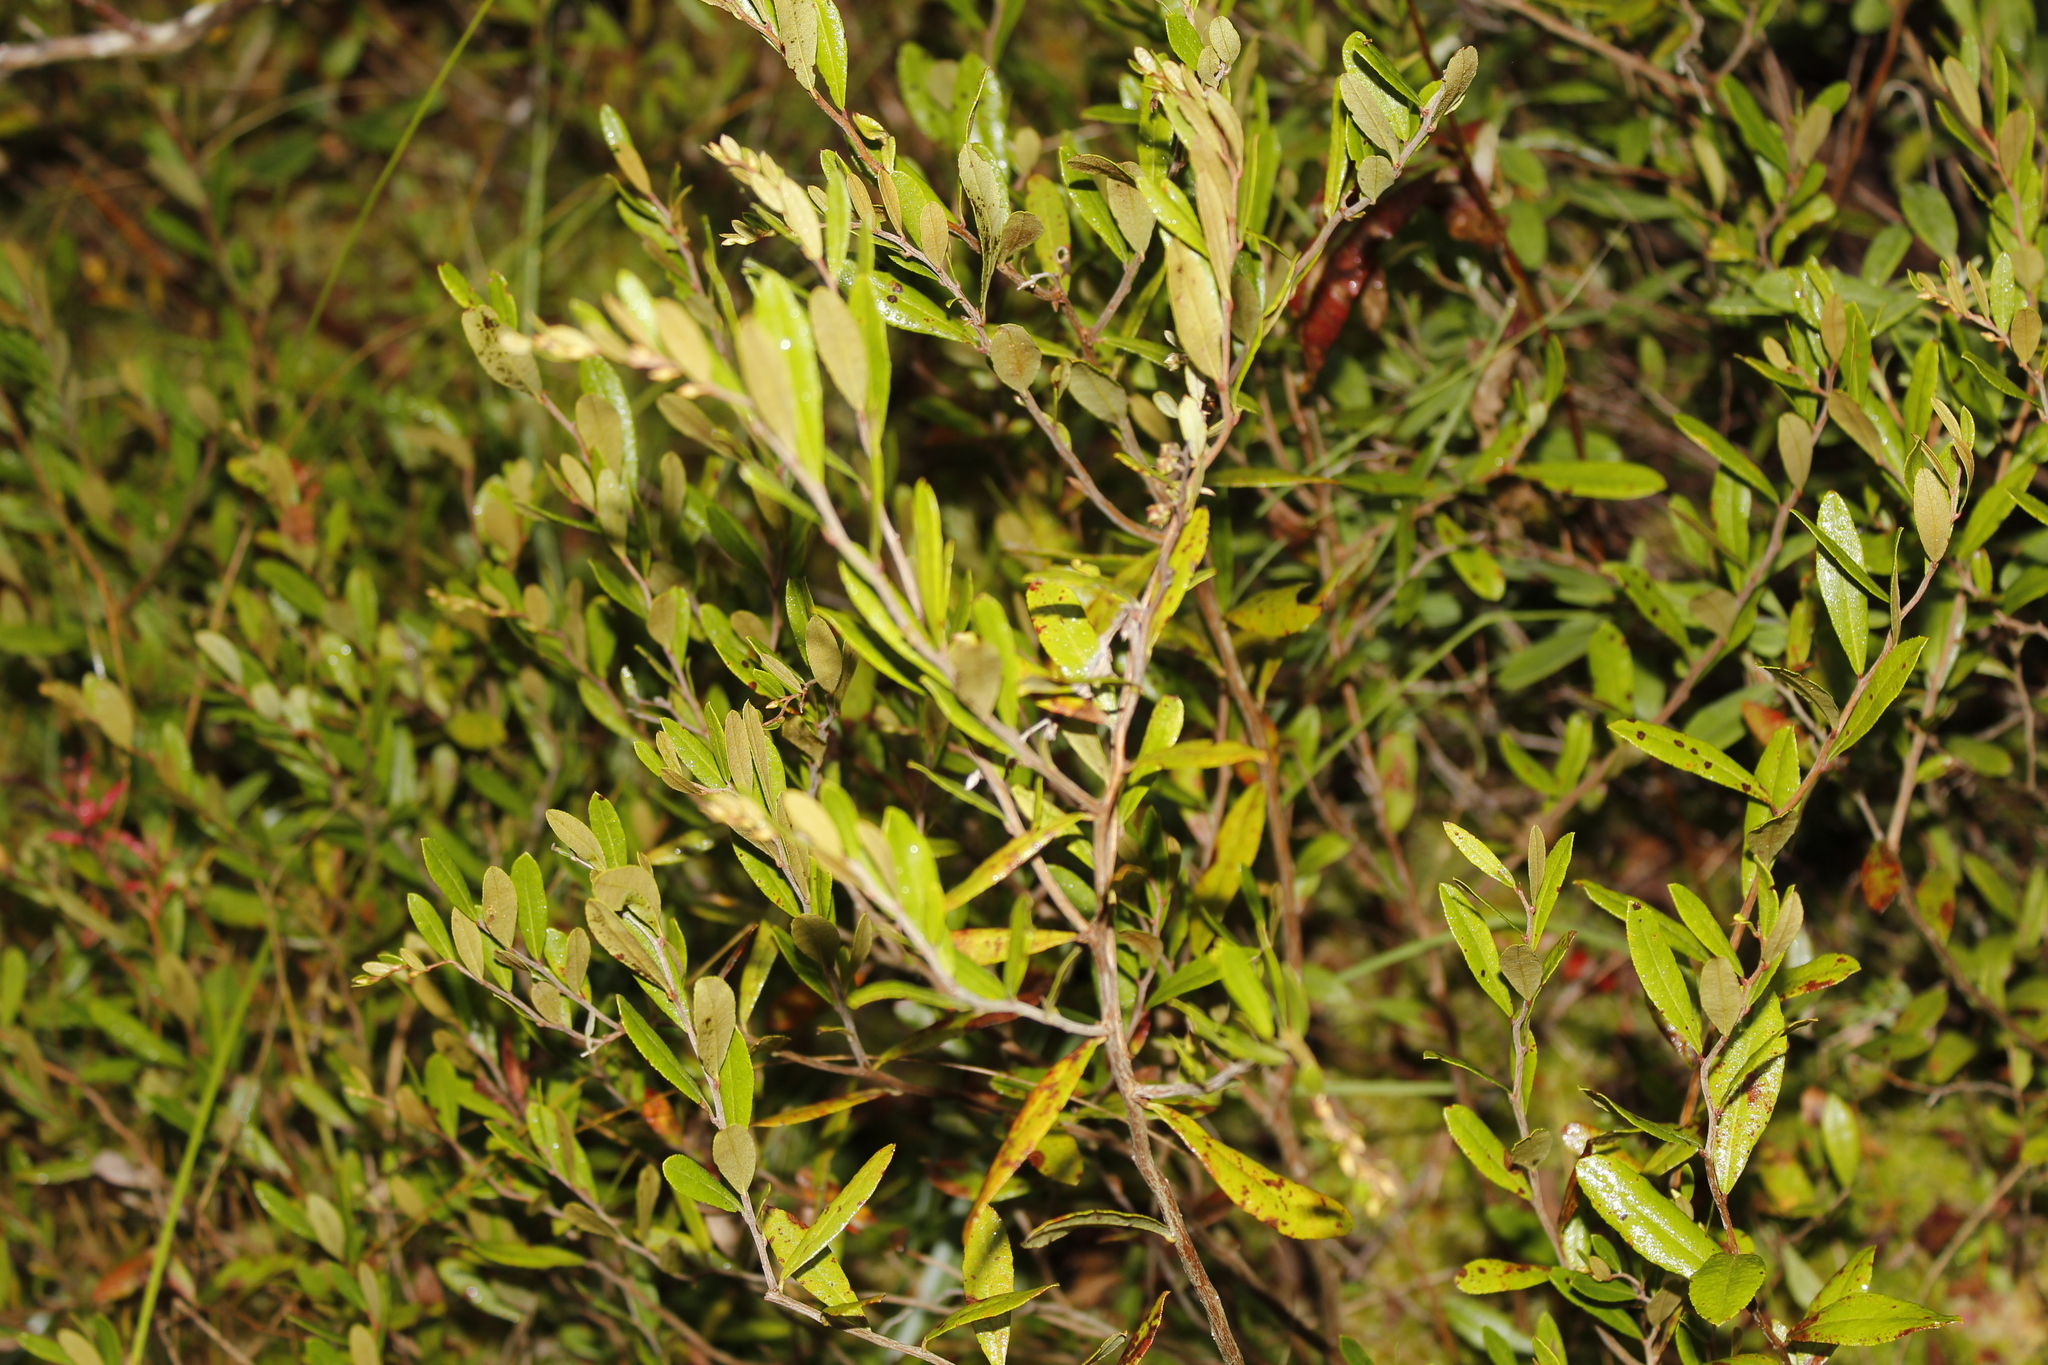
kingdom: Plantae
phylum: Tracheophyta
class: Magnoliopsida
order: Ericales
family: Ericaceae
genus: Chamaedaphne
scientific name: Chamaedaphne calyculata
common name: Leatherleaf
